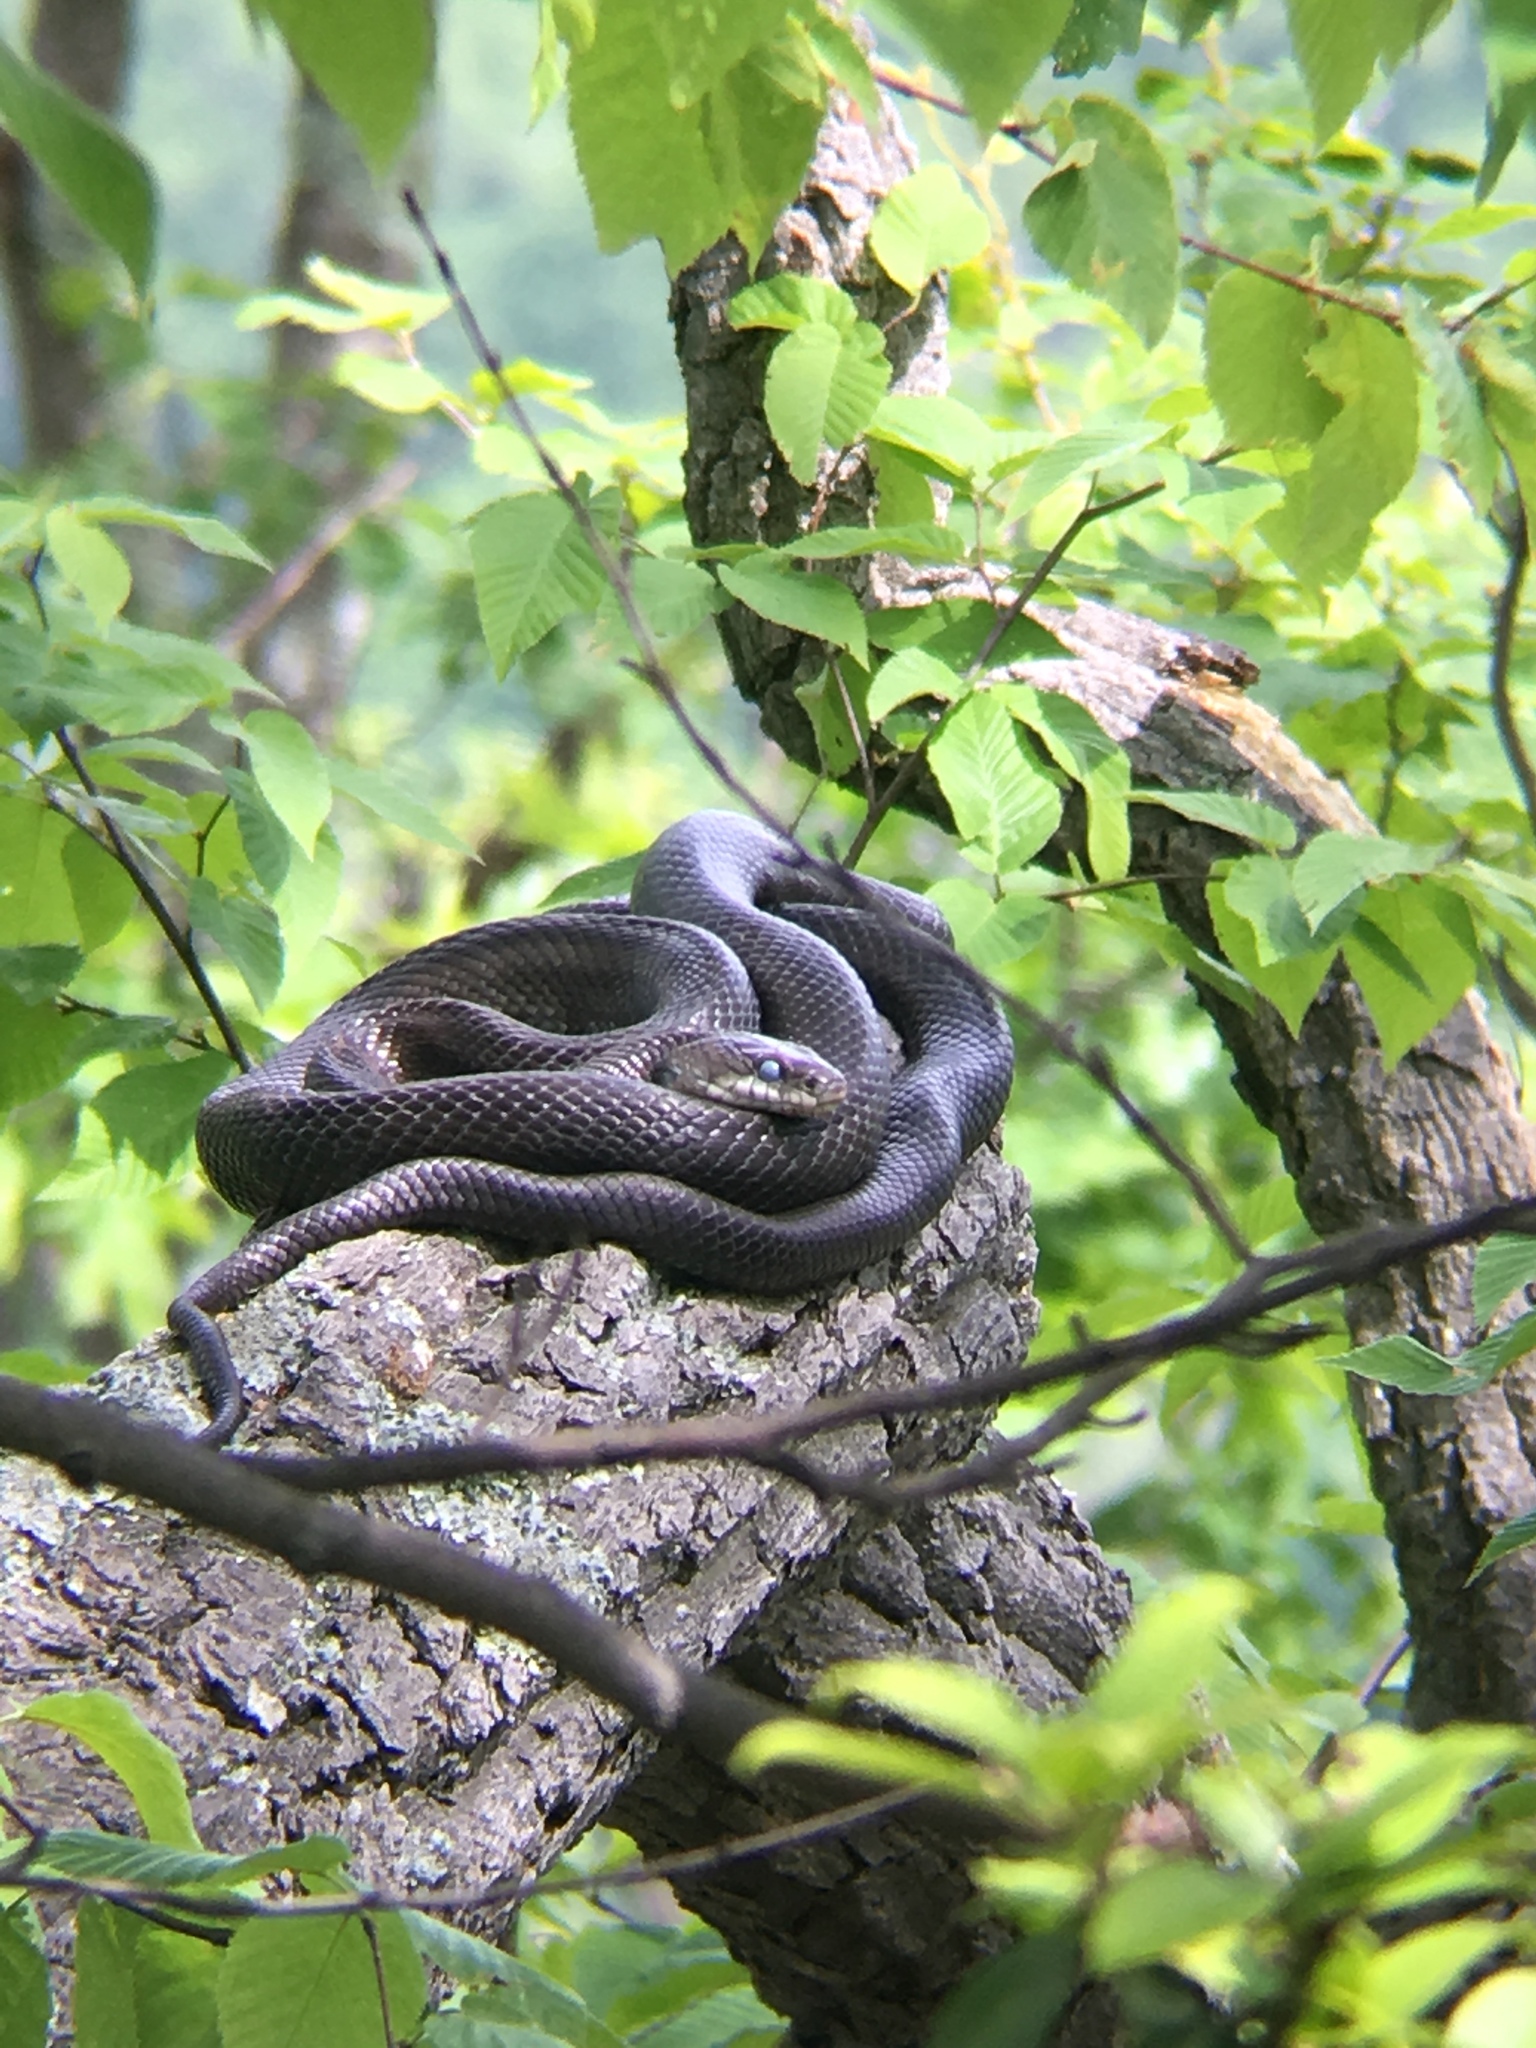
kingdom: Animalia
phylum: Chordata
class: Squamata
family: Colubridae
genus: Pantherophis
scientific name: Pantherophis alleghaniensis
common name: Eastern rat snake
